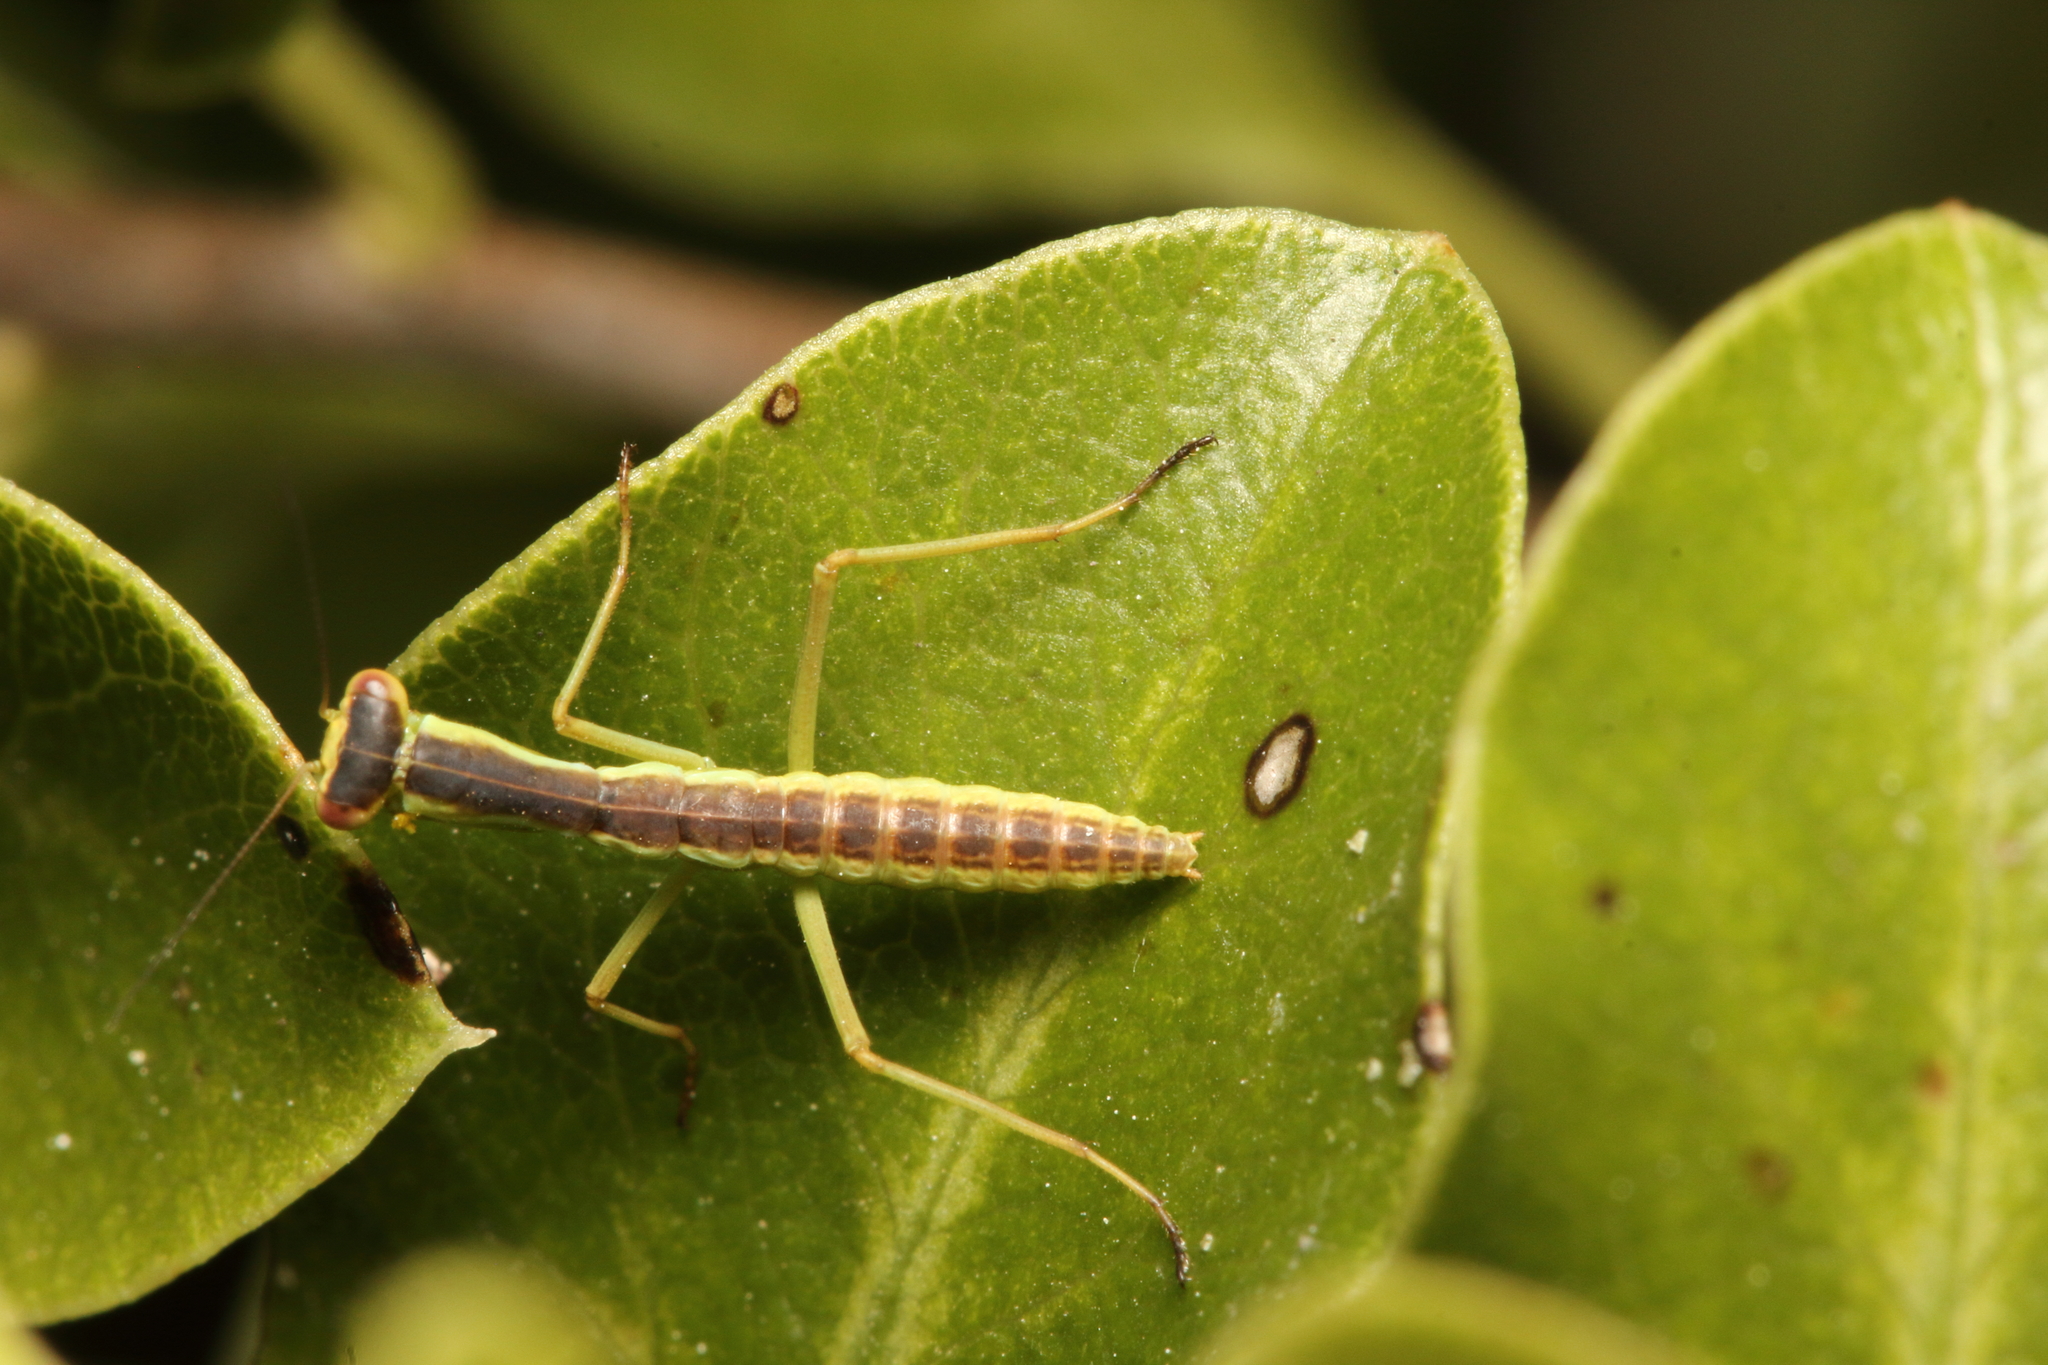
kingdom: Animalia
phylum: Arthropoda
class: Insecta
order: Mantodea
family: Mantidae
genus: Orthodera
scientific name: Orthodera novaezealandiae
